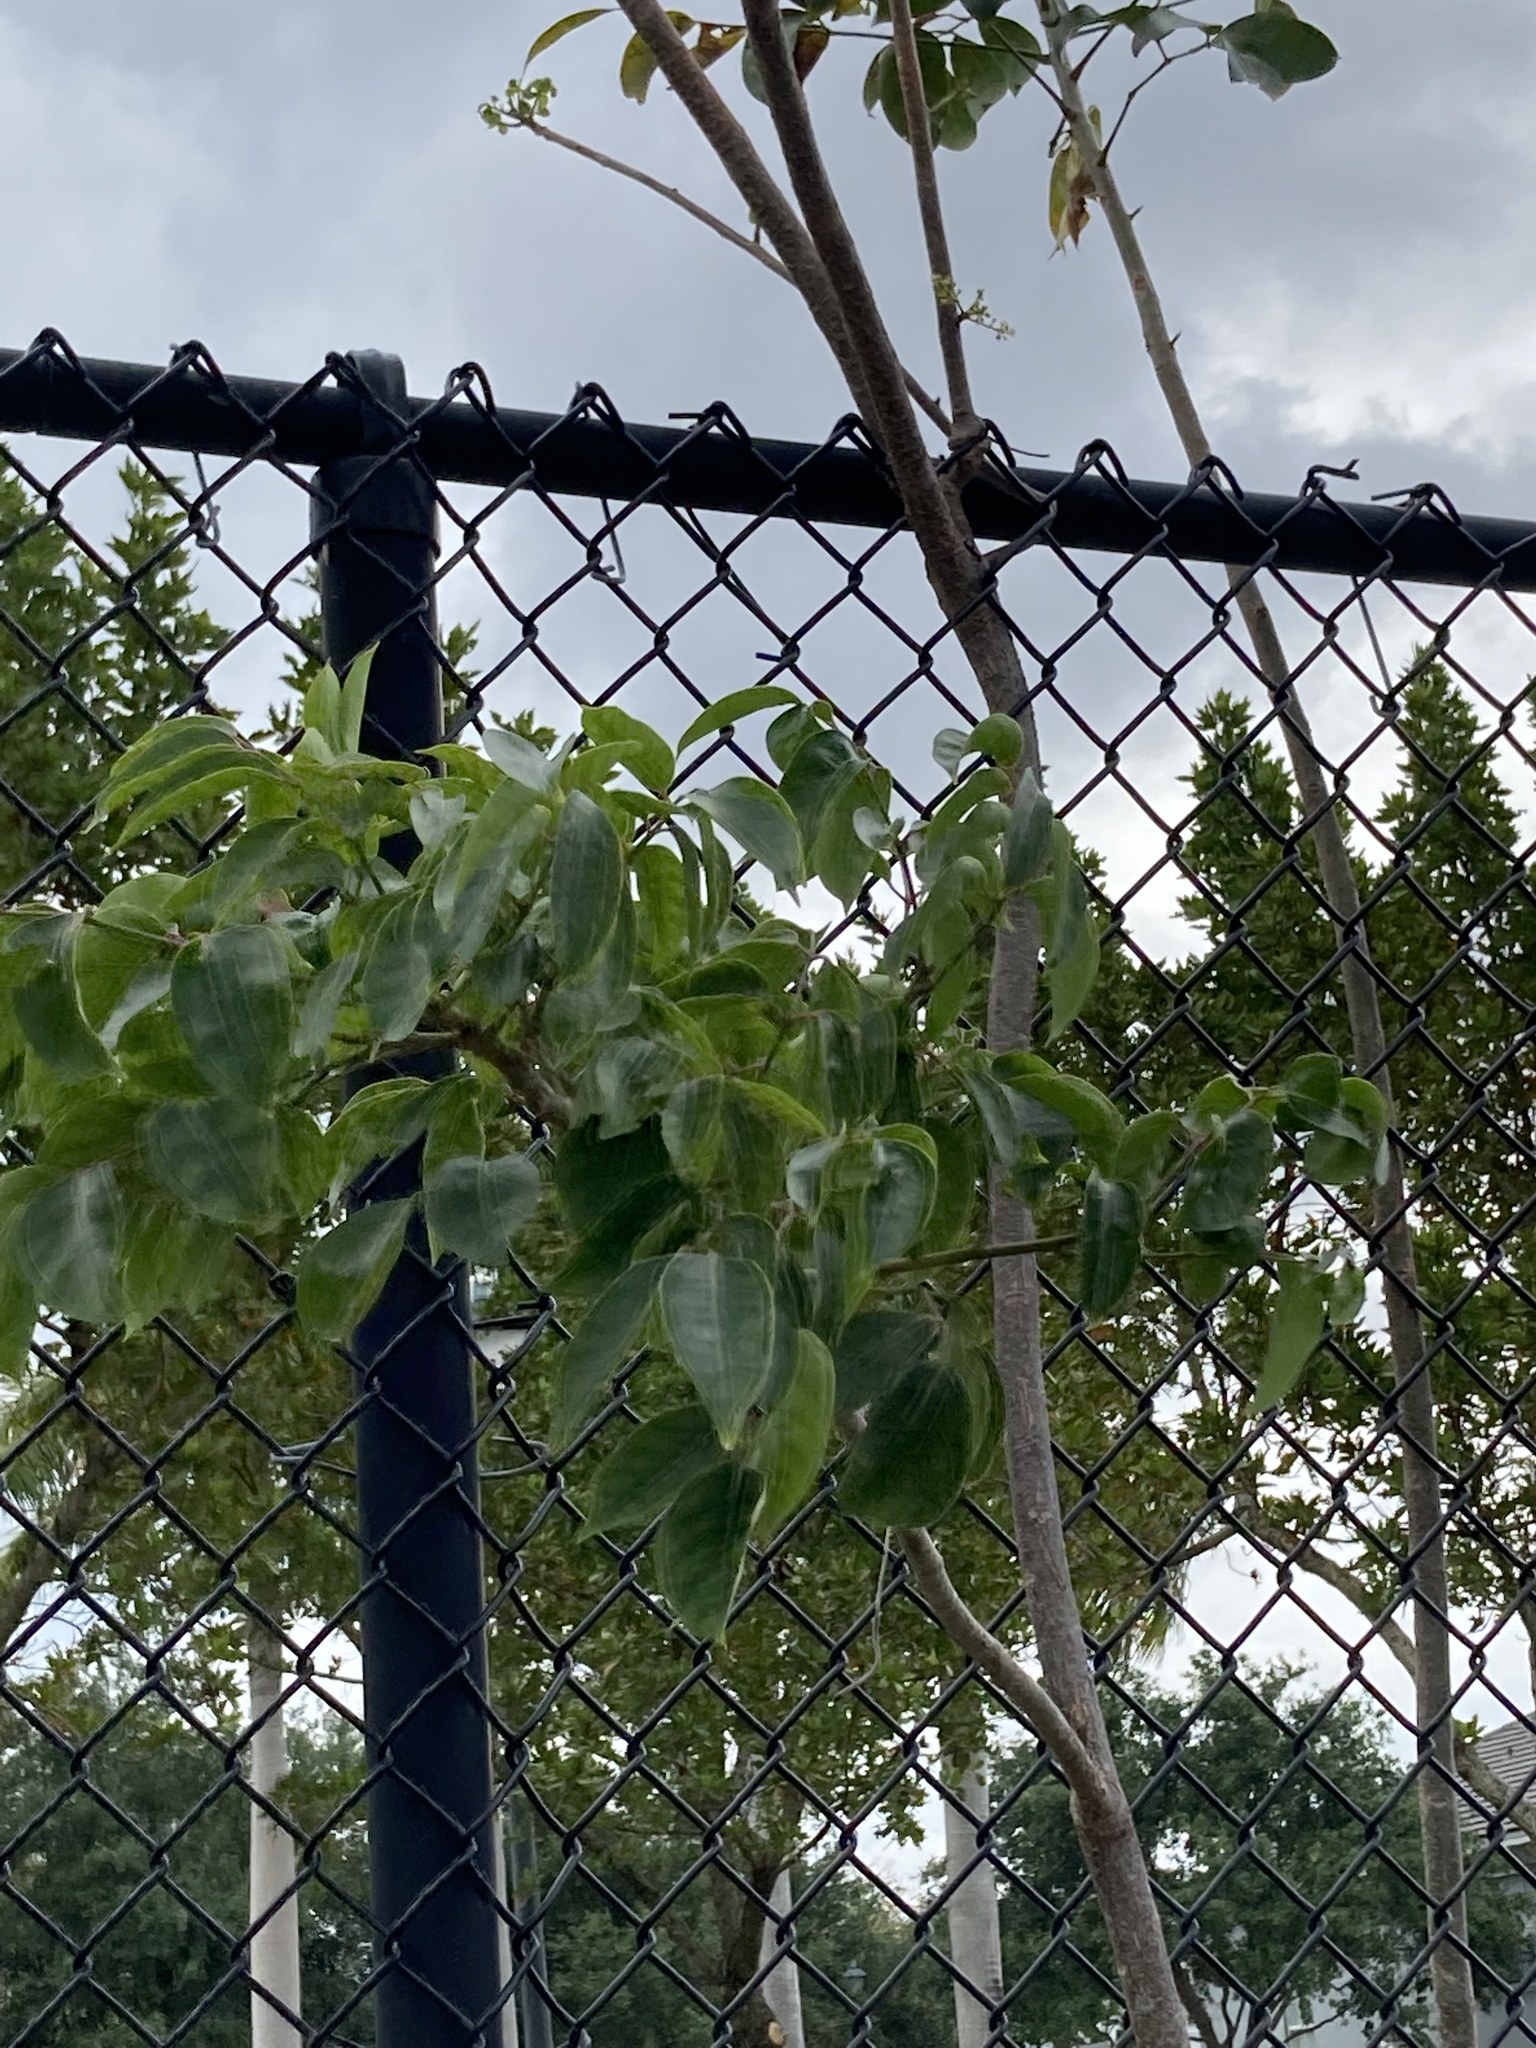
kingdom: Plantae
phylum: Tracheophyta
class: Magnoliopsida
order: Sapindales
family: Burseraceae
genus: Bursera
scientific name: Bursera simaruba
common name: Turpentine tree
